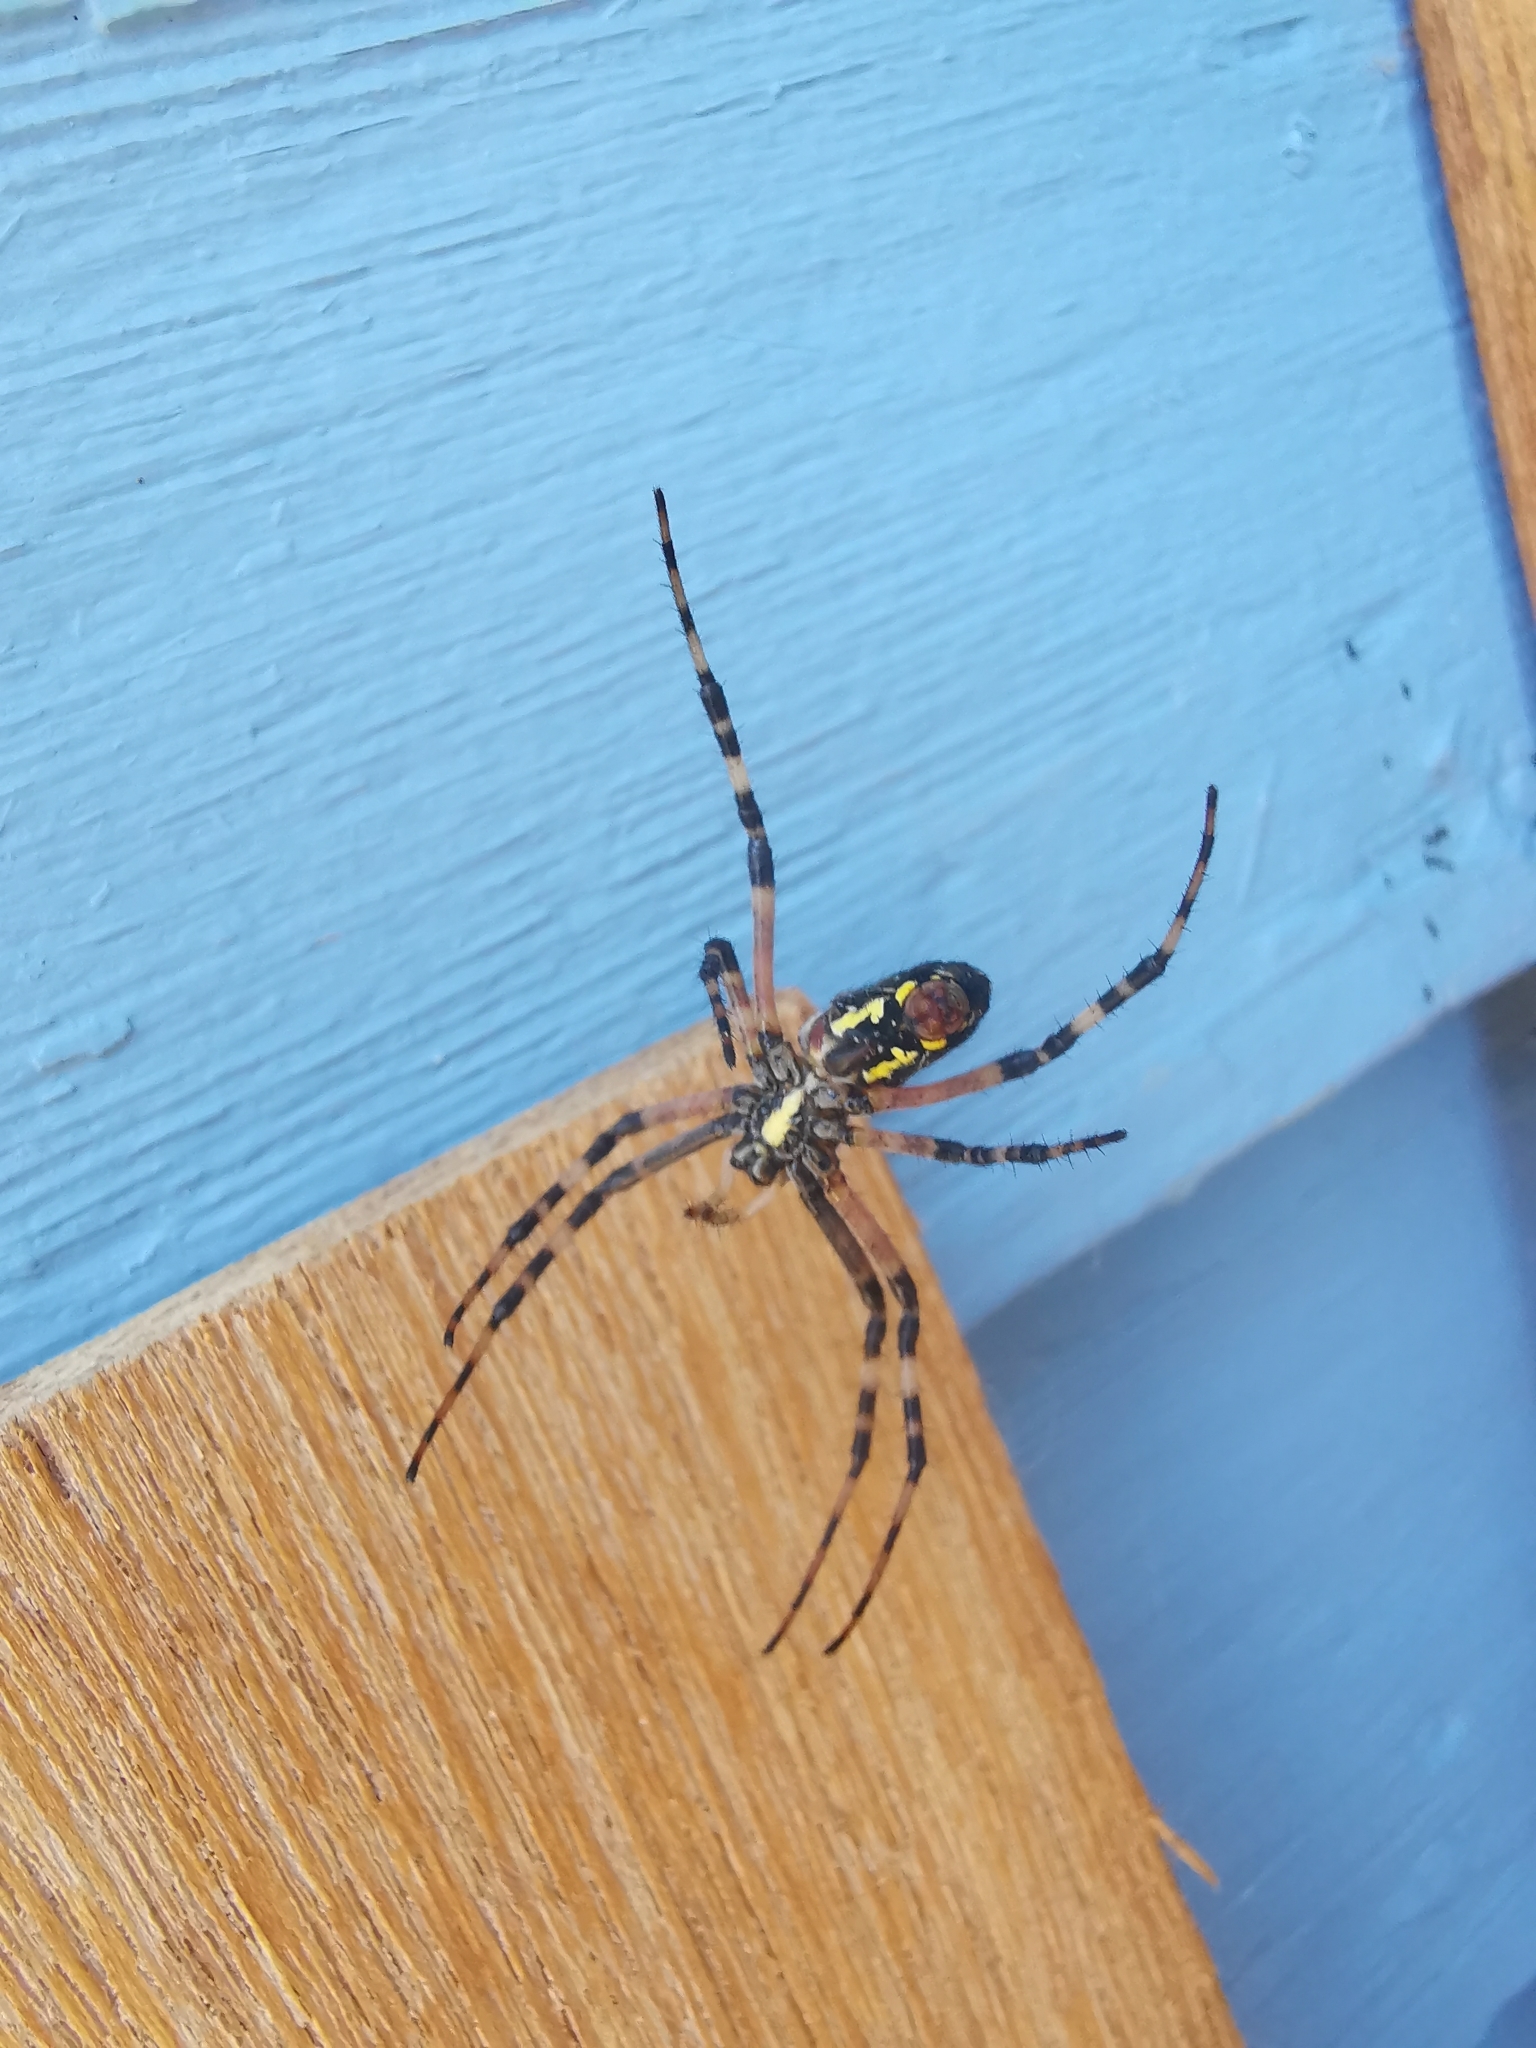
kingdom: Animalia
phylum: Arthropoda
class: Arachnida
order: Araneae
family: Araneidae
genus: Argiope
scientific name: Argiope aurantia
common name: Orb weavers
